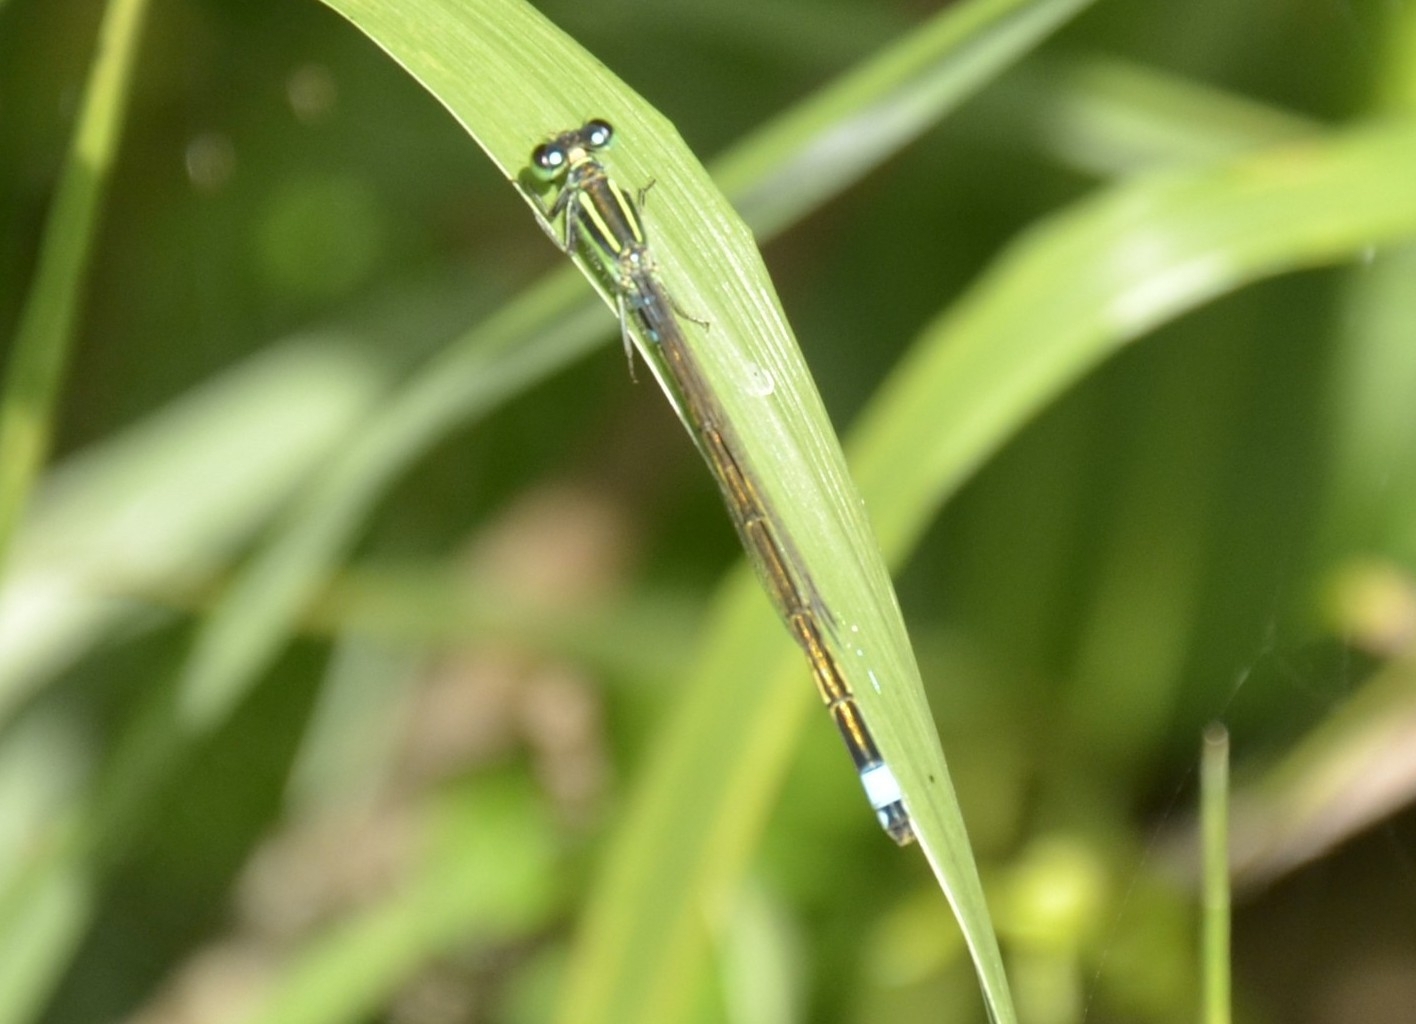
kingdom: Animalia
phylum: Arthropoda
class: Insecta
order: Odonata
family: Coenagrionidae
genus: Ischnura
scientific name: Ischnura senegalensis
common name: Tropical bluetail
